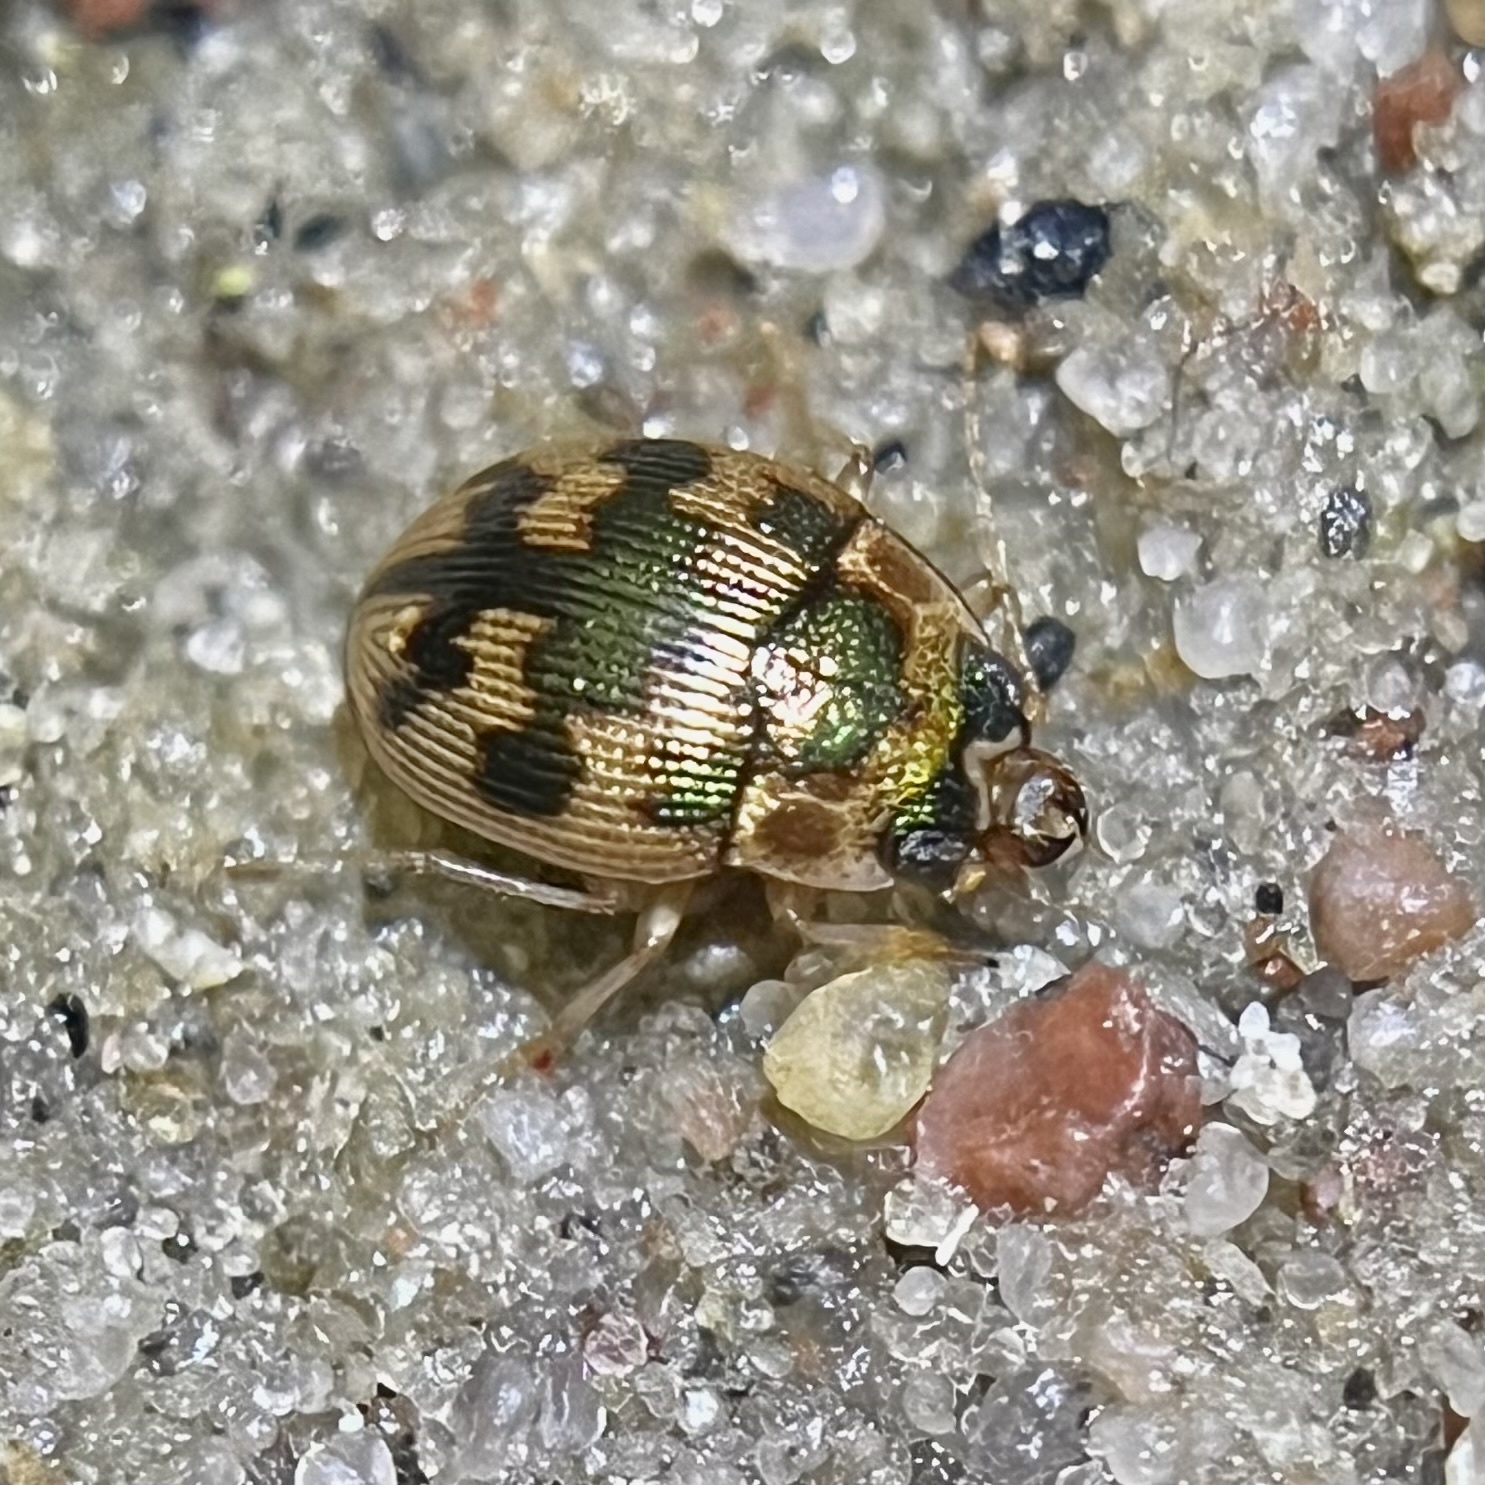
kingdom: Animalia
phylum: Arthropoda
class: Insecta
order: Coleoptera
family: Carabidae
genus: Omophron
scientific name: Omophron limbatum
